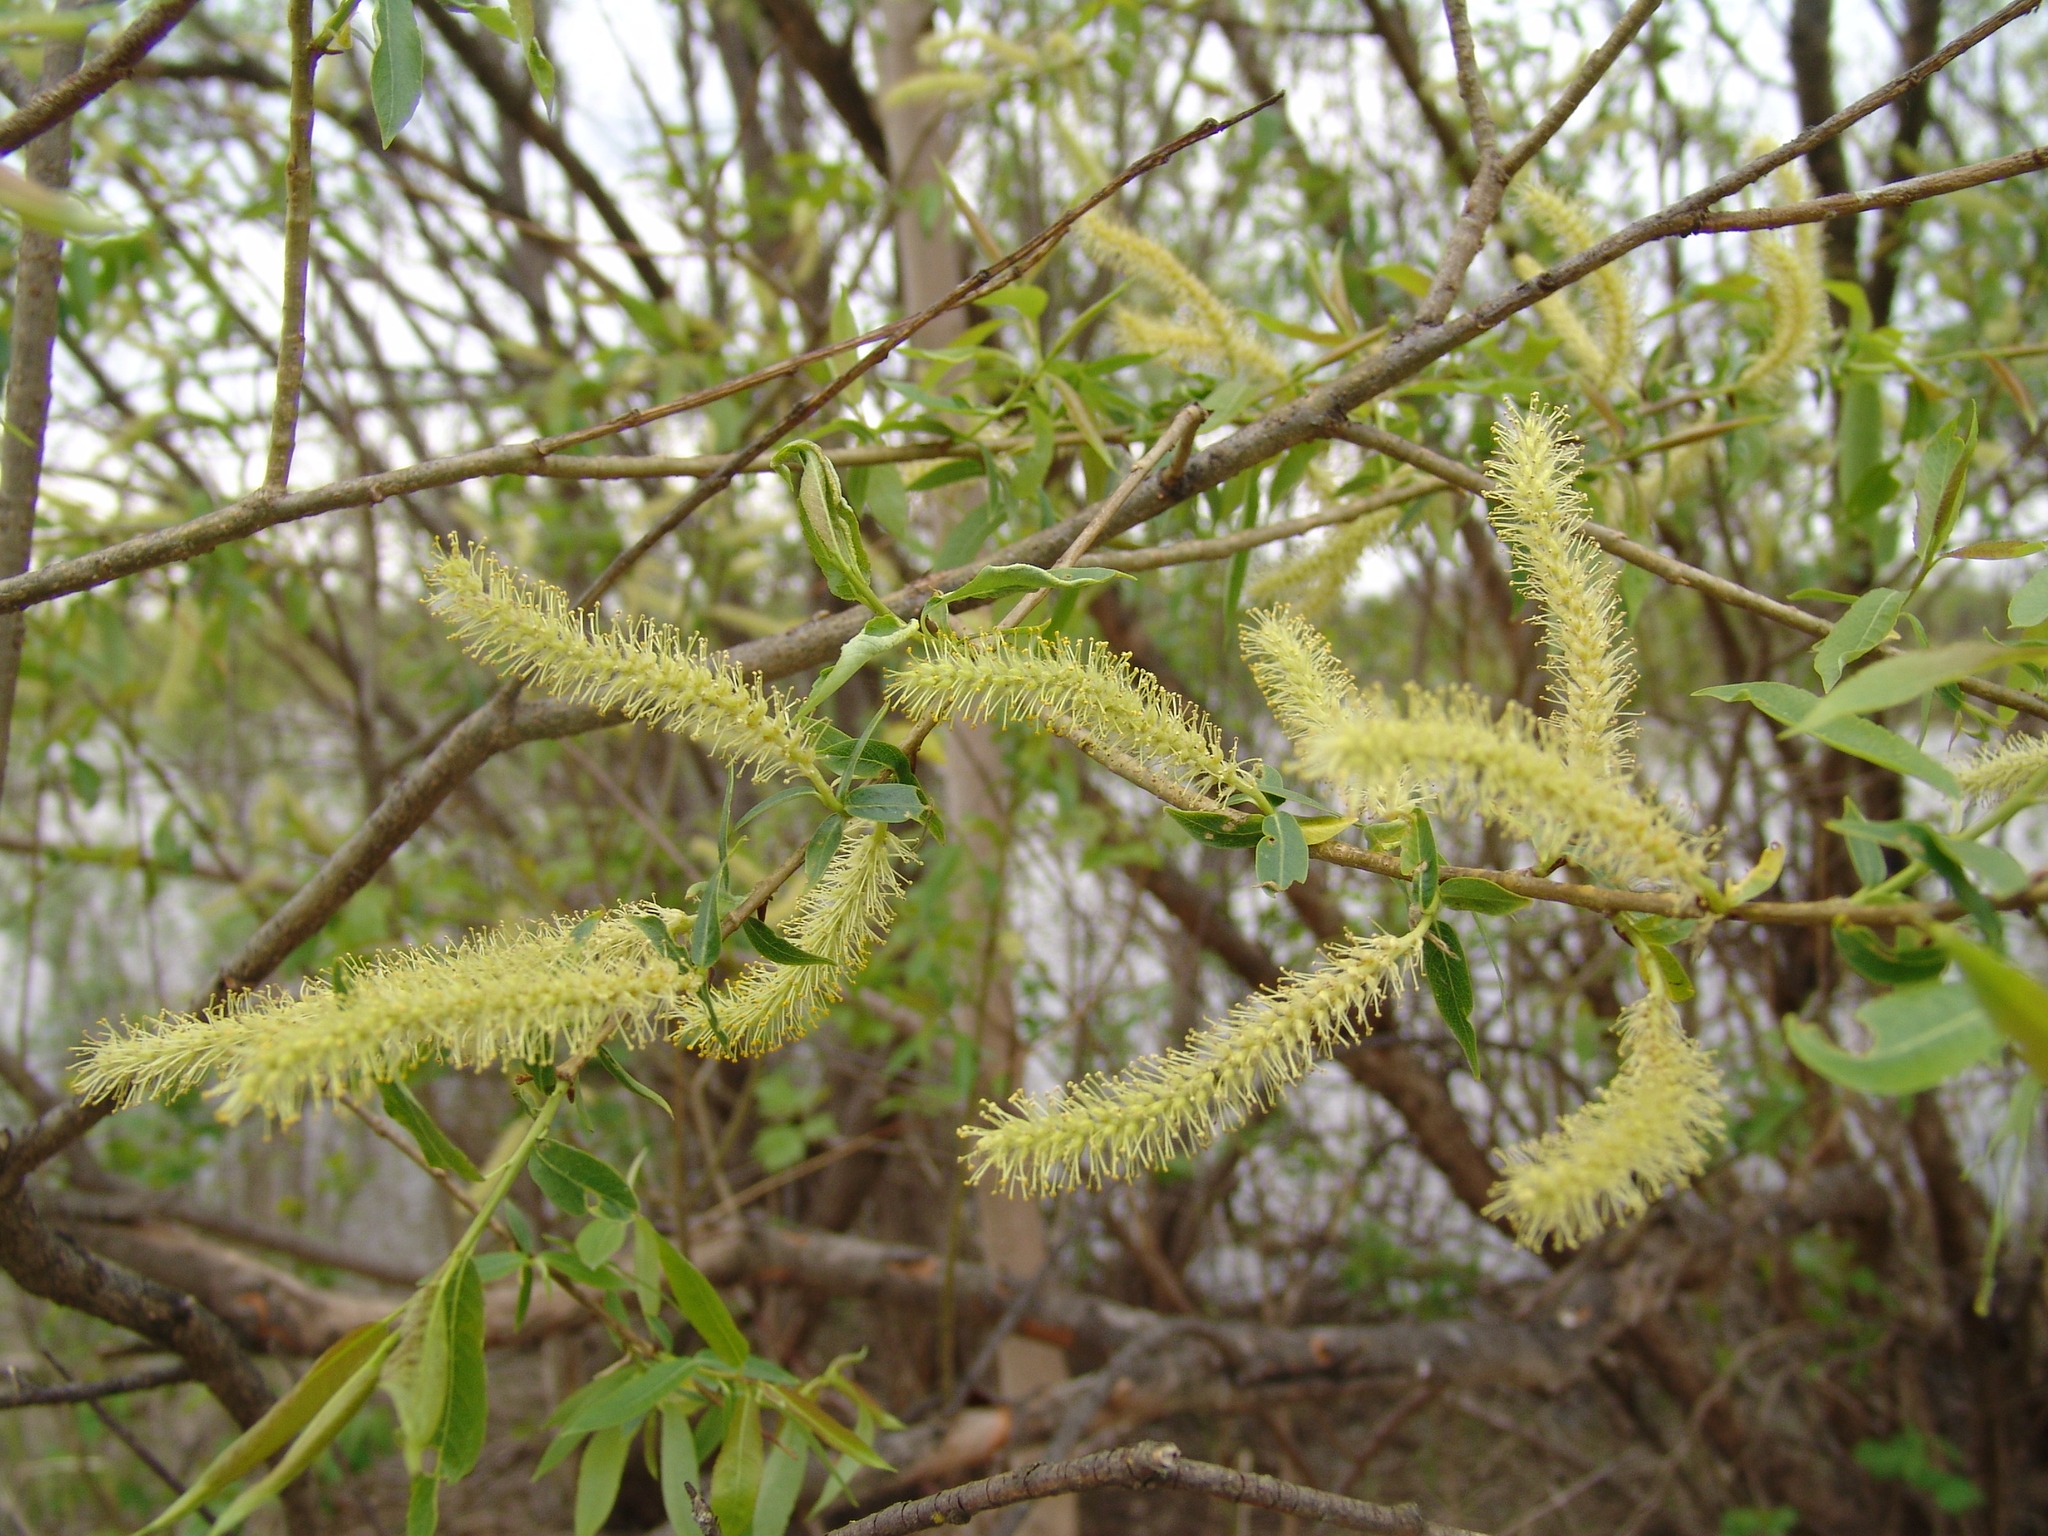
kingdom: Plantae
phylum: Tracheophyta
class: Magnoliopsida
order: Malpighiales
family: Salicaceae
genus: Salix
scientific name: Salix triandra
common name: Almond willow
